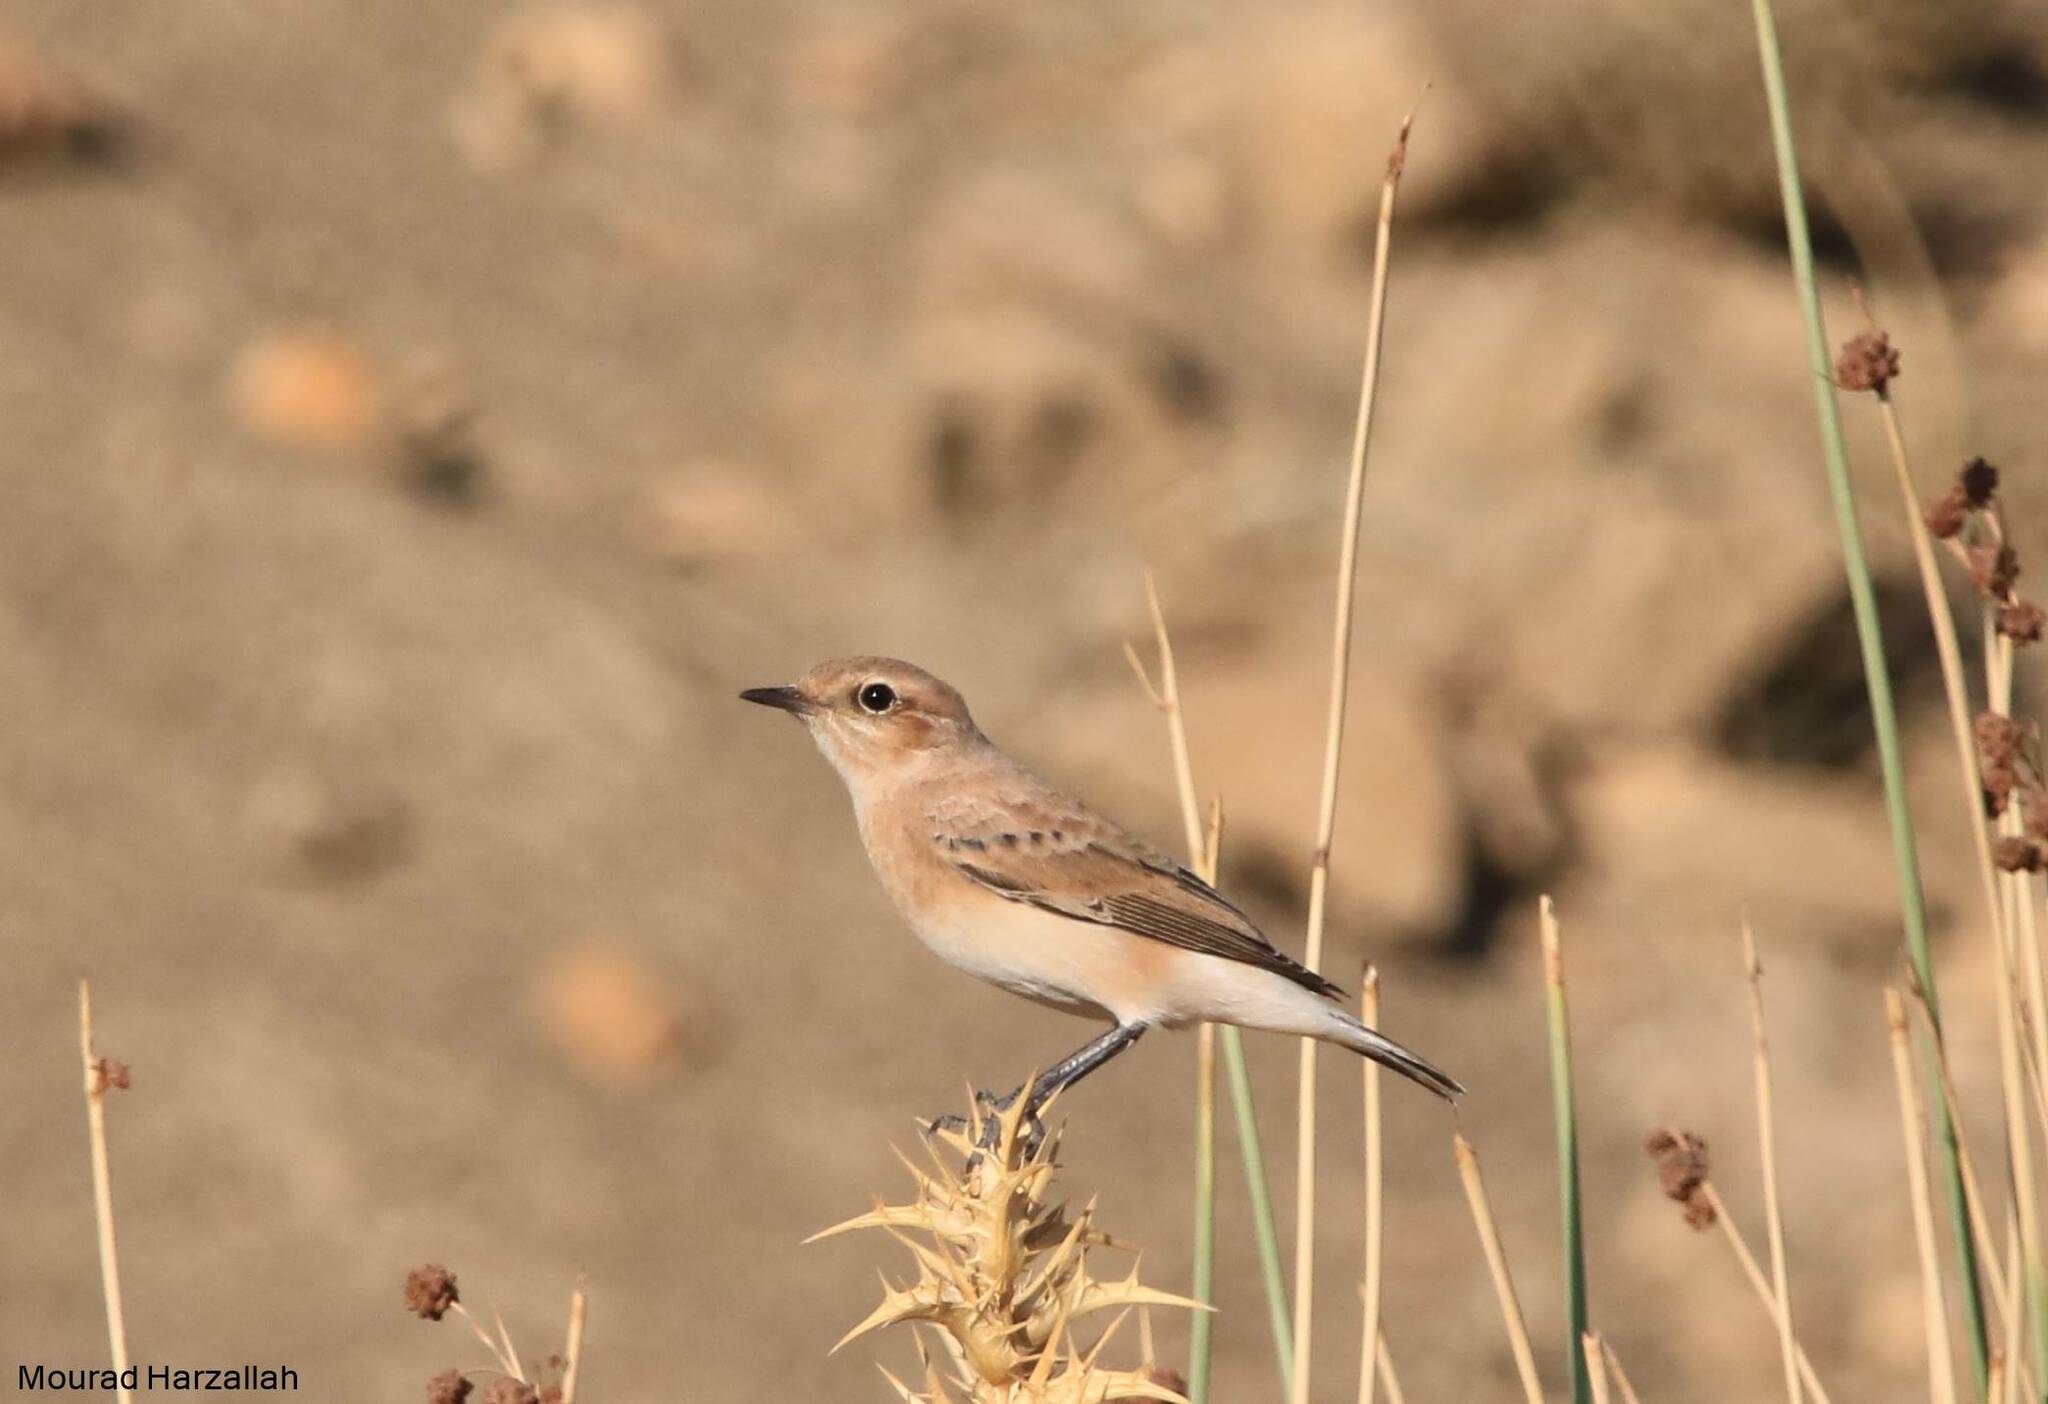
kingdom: Animalia
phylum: Chordata
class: Aves
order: Passeriformes
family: Muscicapidae
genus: Oenanthe
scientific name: Oenanthe hispanica
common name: Black-eared wheatear
